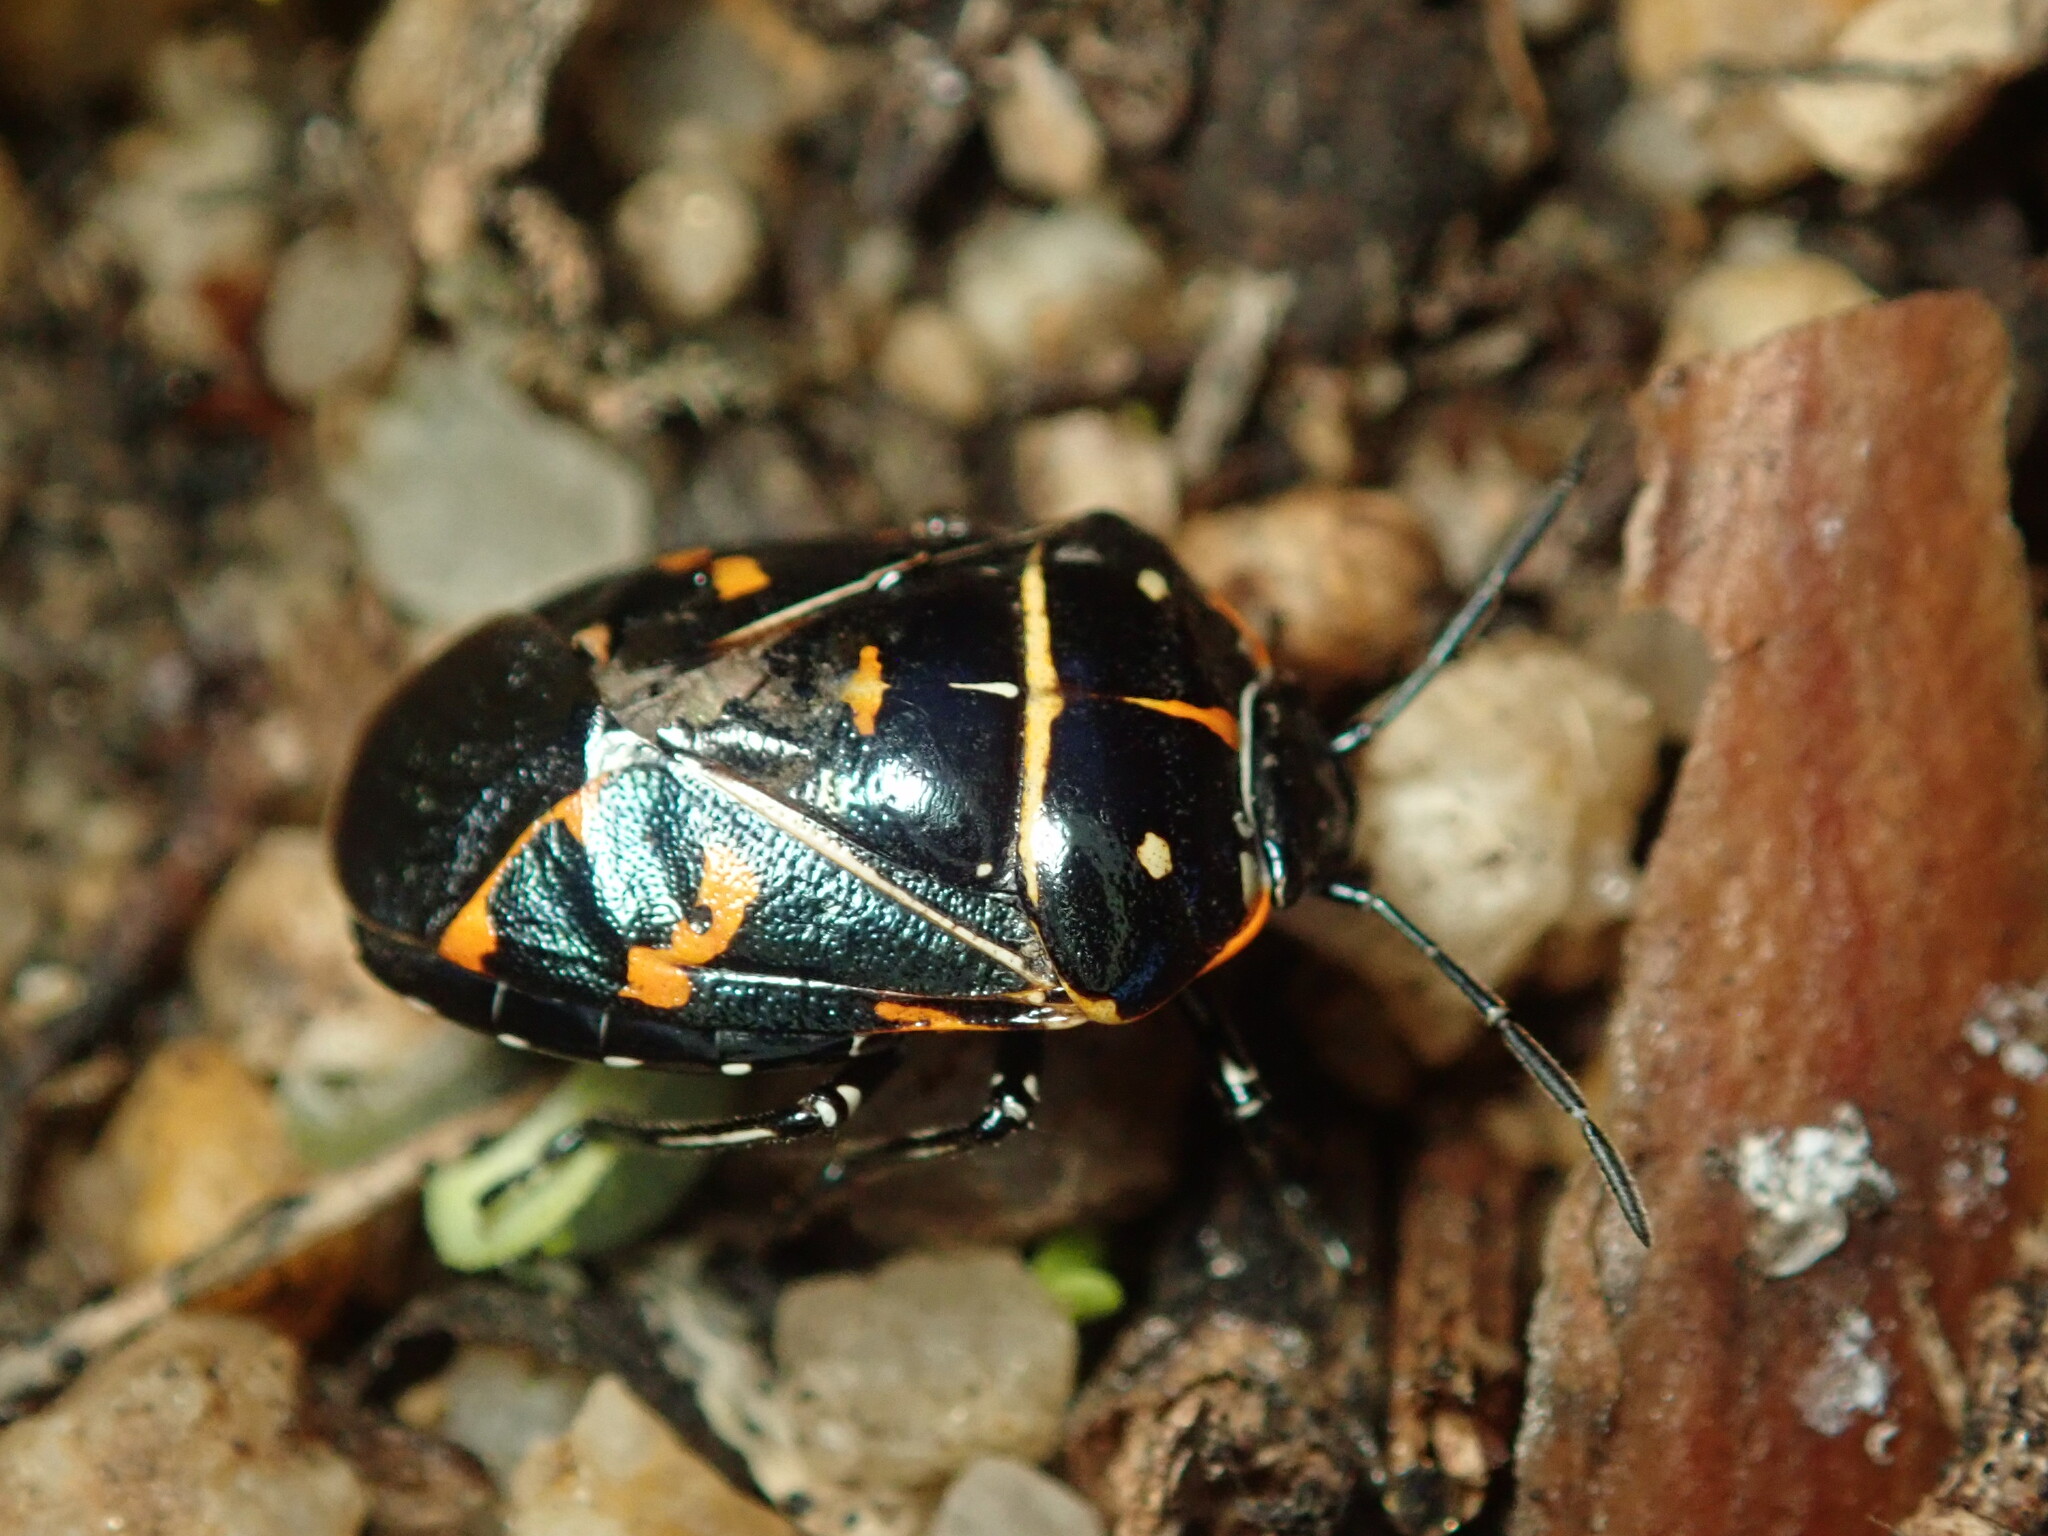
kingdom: Animalia
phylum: Arthropoda
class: Insecta
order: Hemiptera
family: Pentatomidae
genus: Murgantia
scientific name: Murgantia histrionica
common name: Harlequin bug
